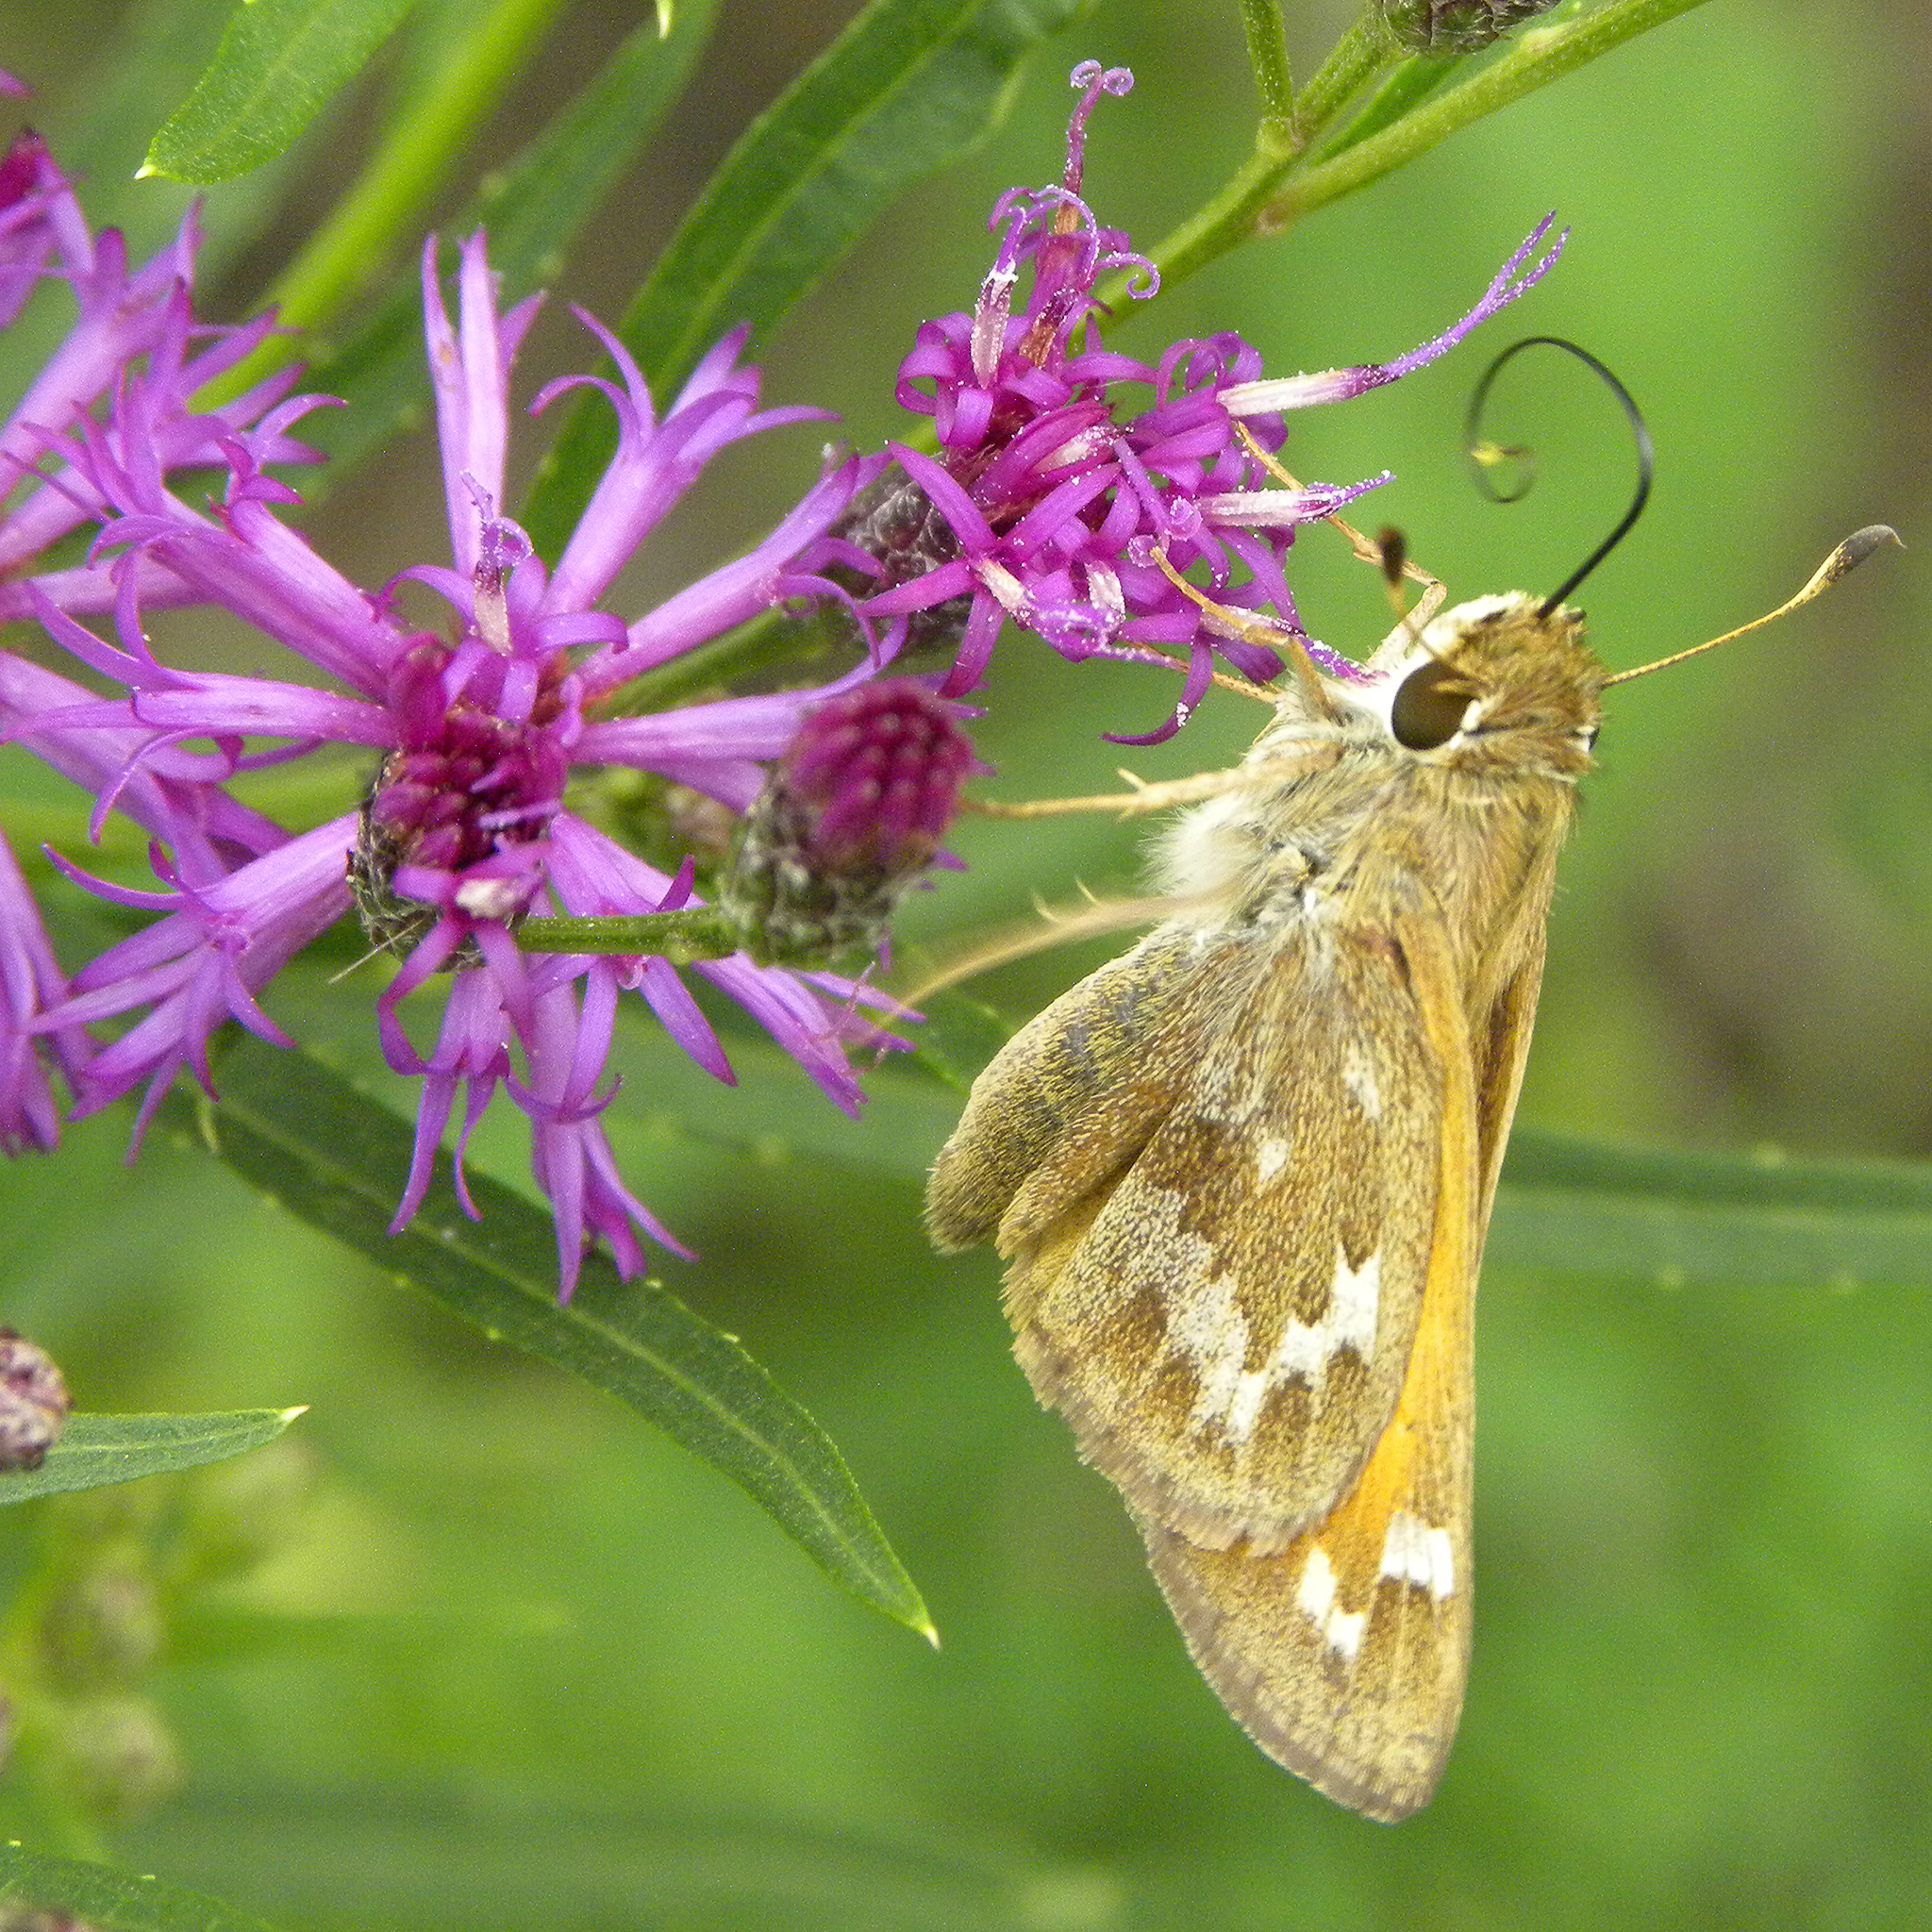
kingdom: Animalia
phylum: Arthropoda
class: Insecta
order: Lepidoptera
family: Hesperiidae
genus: Atalopedes
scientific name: Atalopedes
